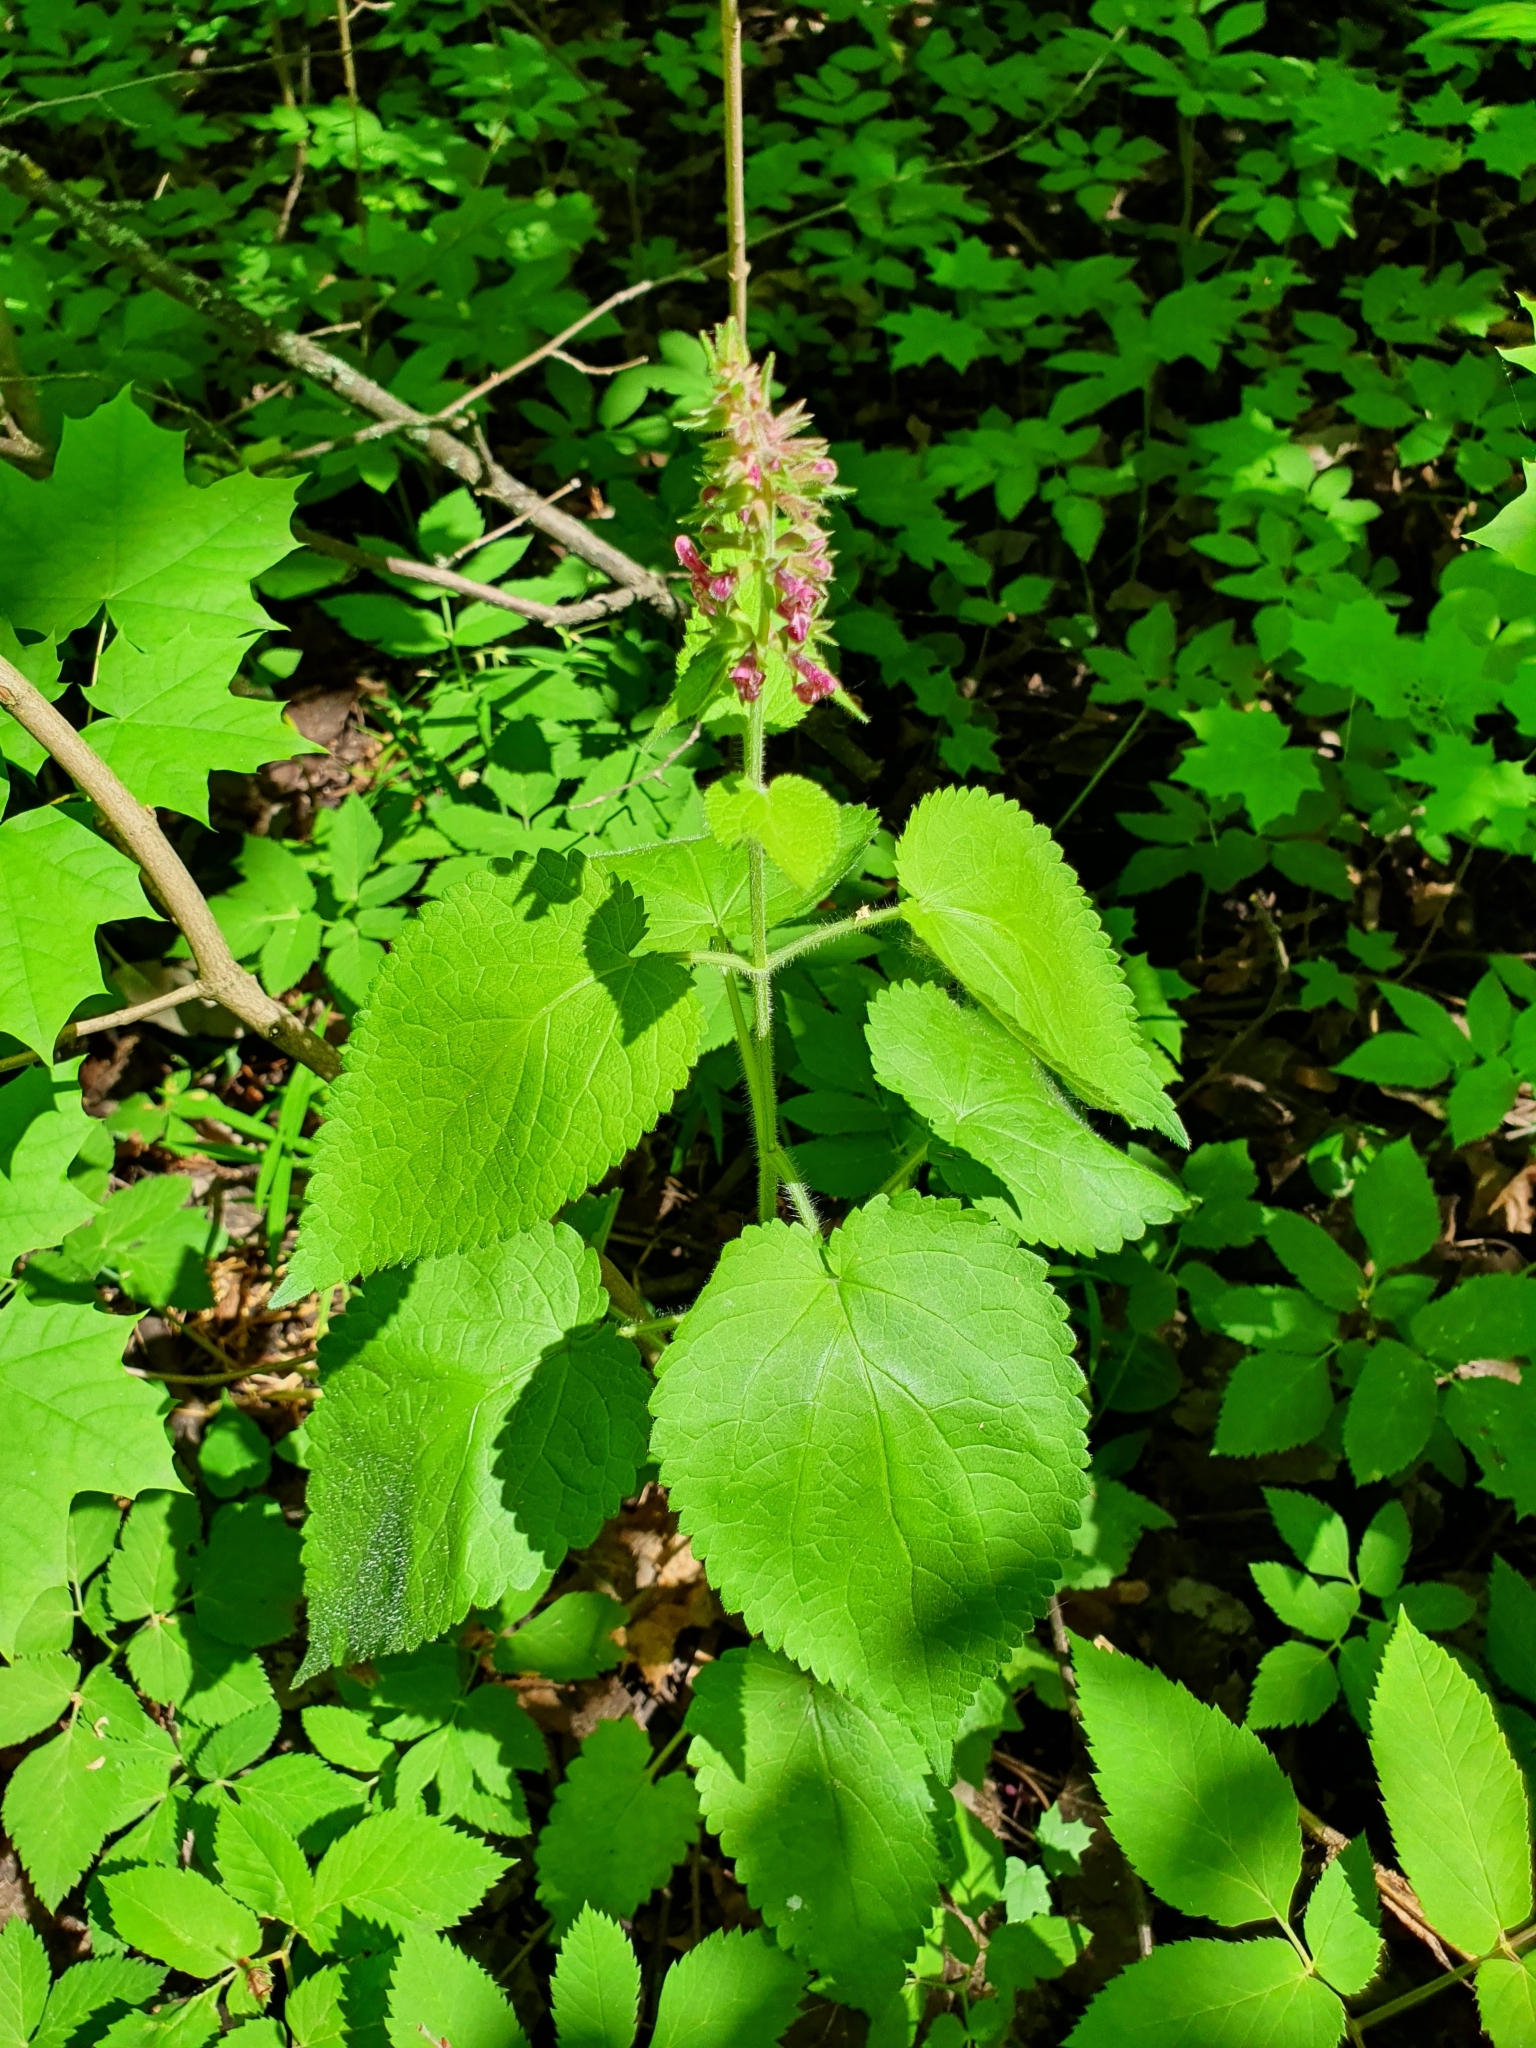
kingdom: Plantae
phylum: Tracheophyta
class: Magnoliopsida
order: Lamiales
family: Lamiaceae
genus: Stachys
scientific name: Stachys sylvatica
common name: Hedge woundwort
